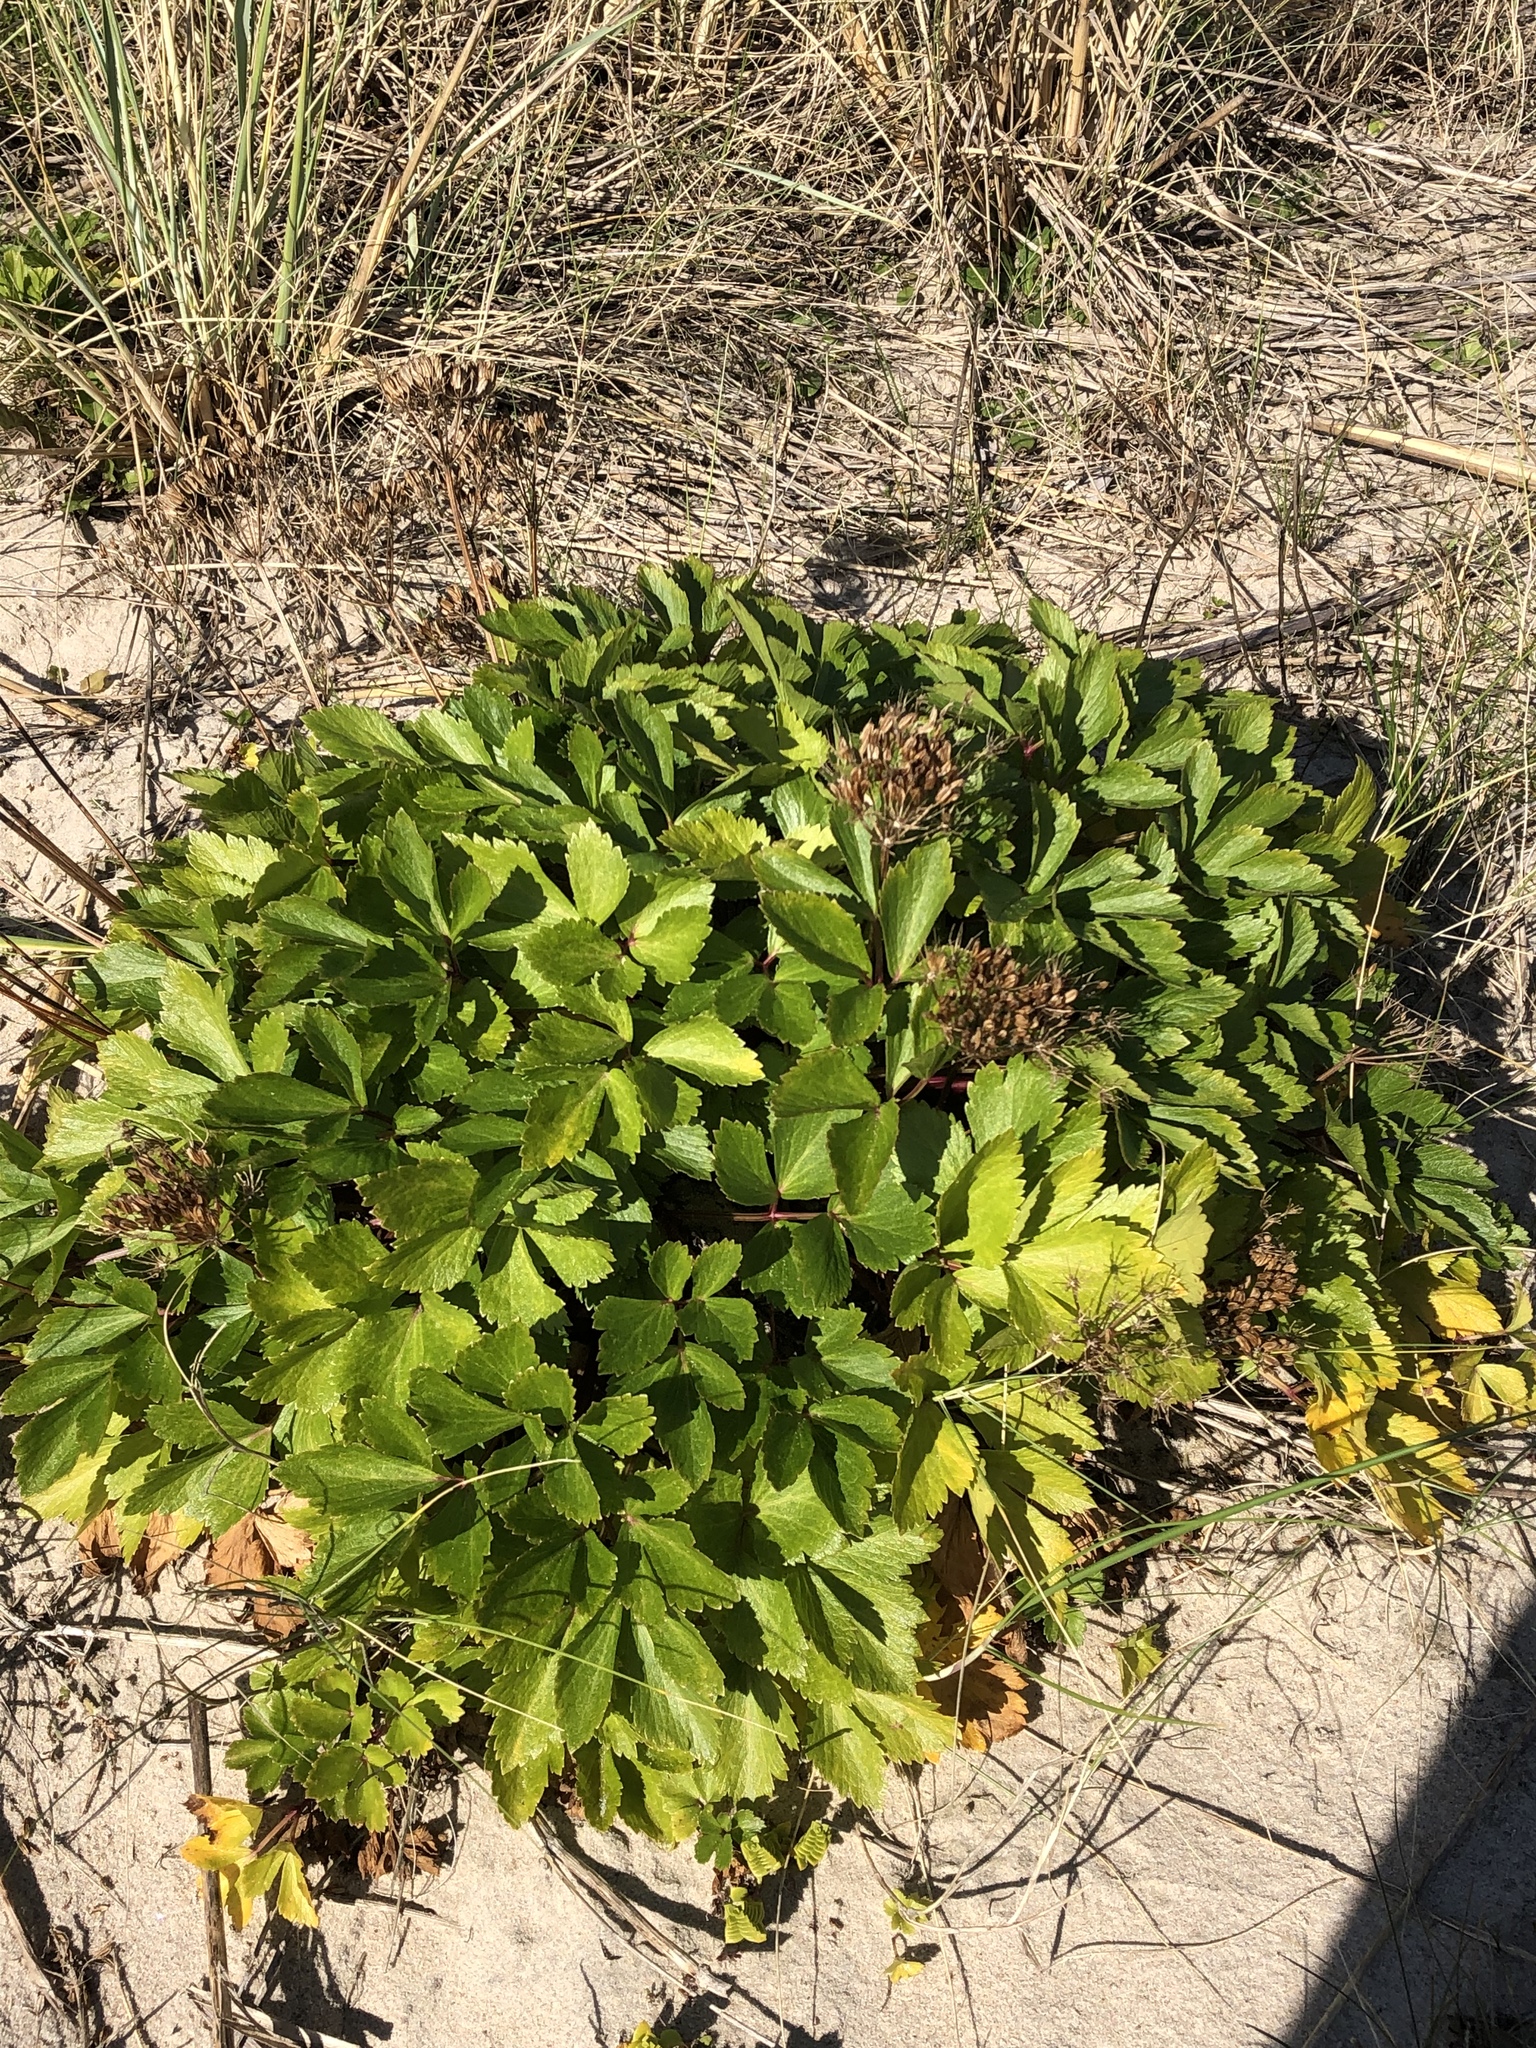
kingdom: Plantae
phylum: Tracheophyta
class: Magnoliopsida
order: Apiales
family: Apiaceae
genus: Ligusticum
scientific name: Ligusticum scothicum
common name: Beach lovage
